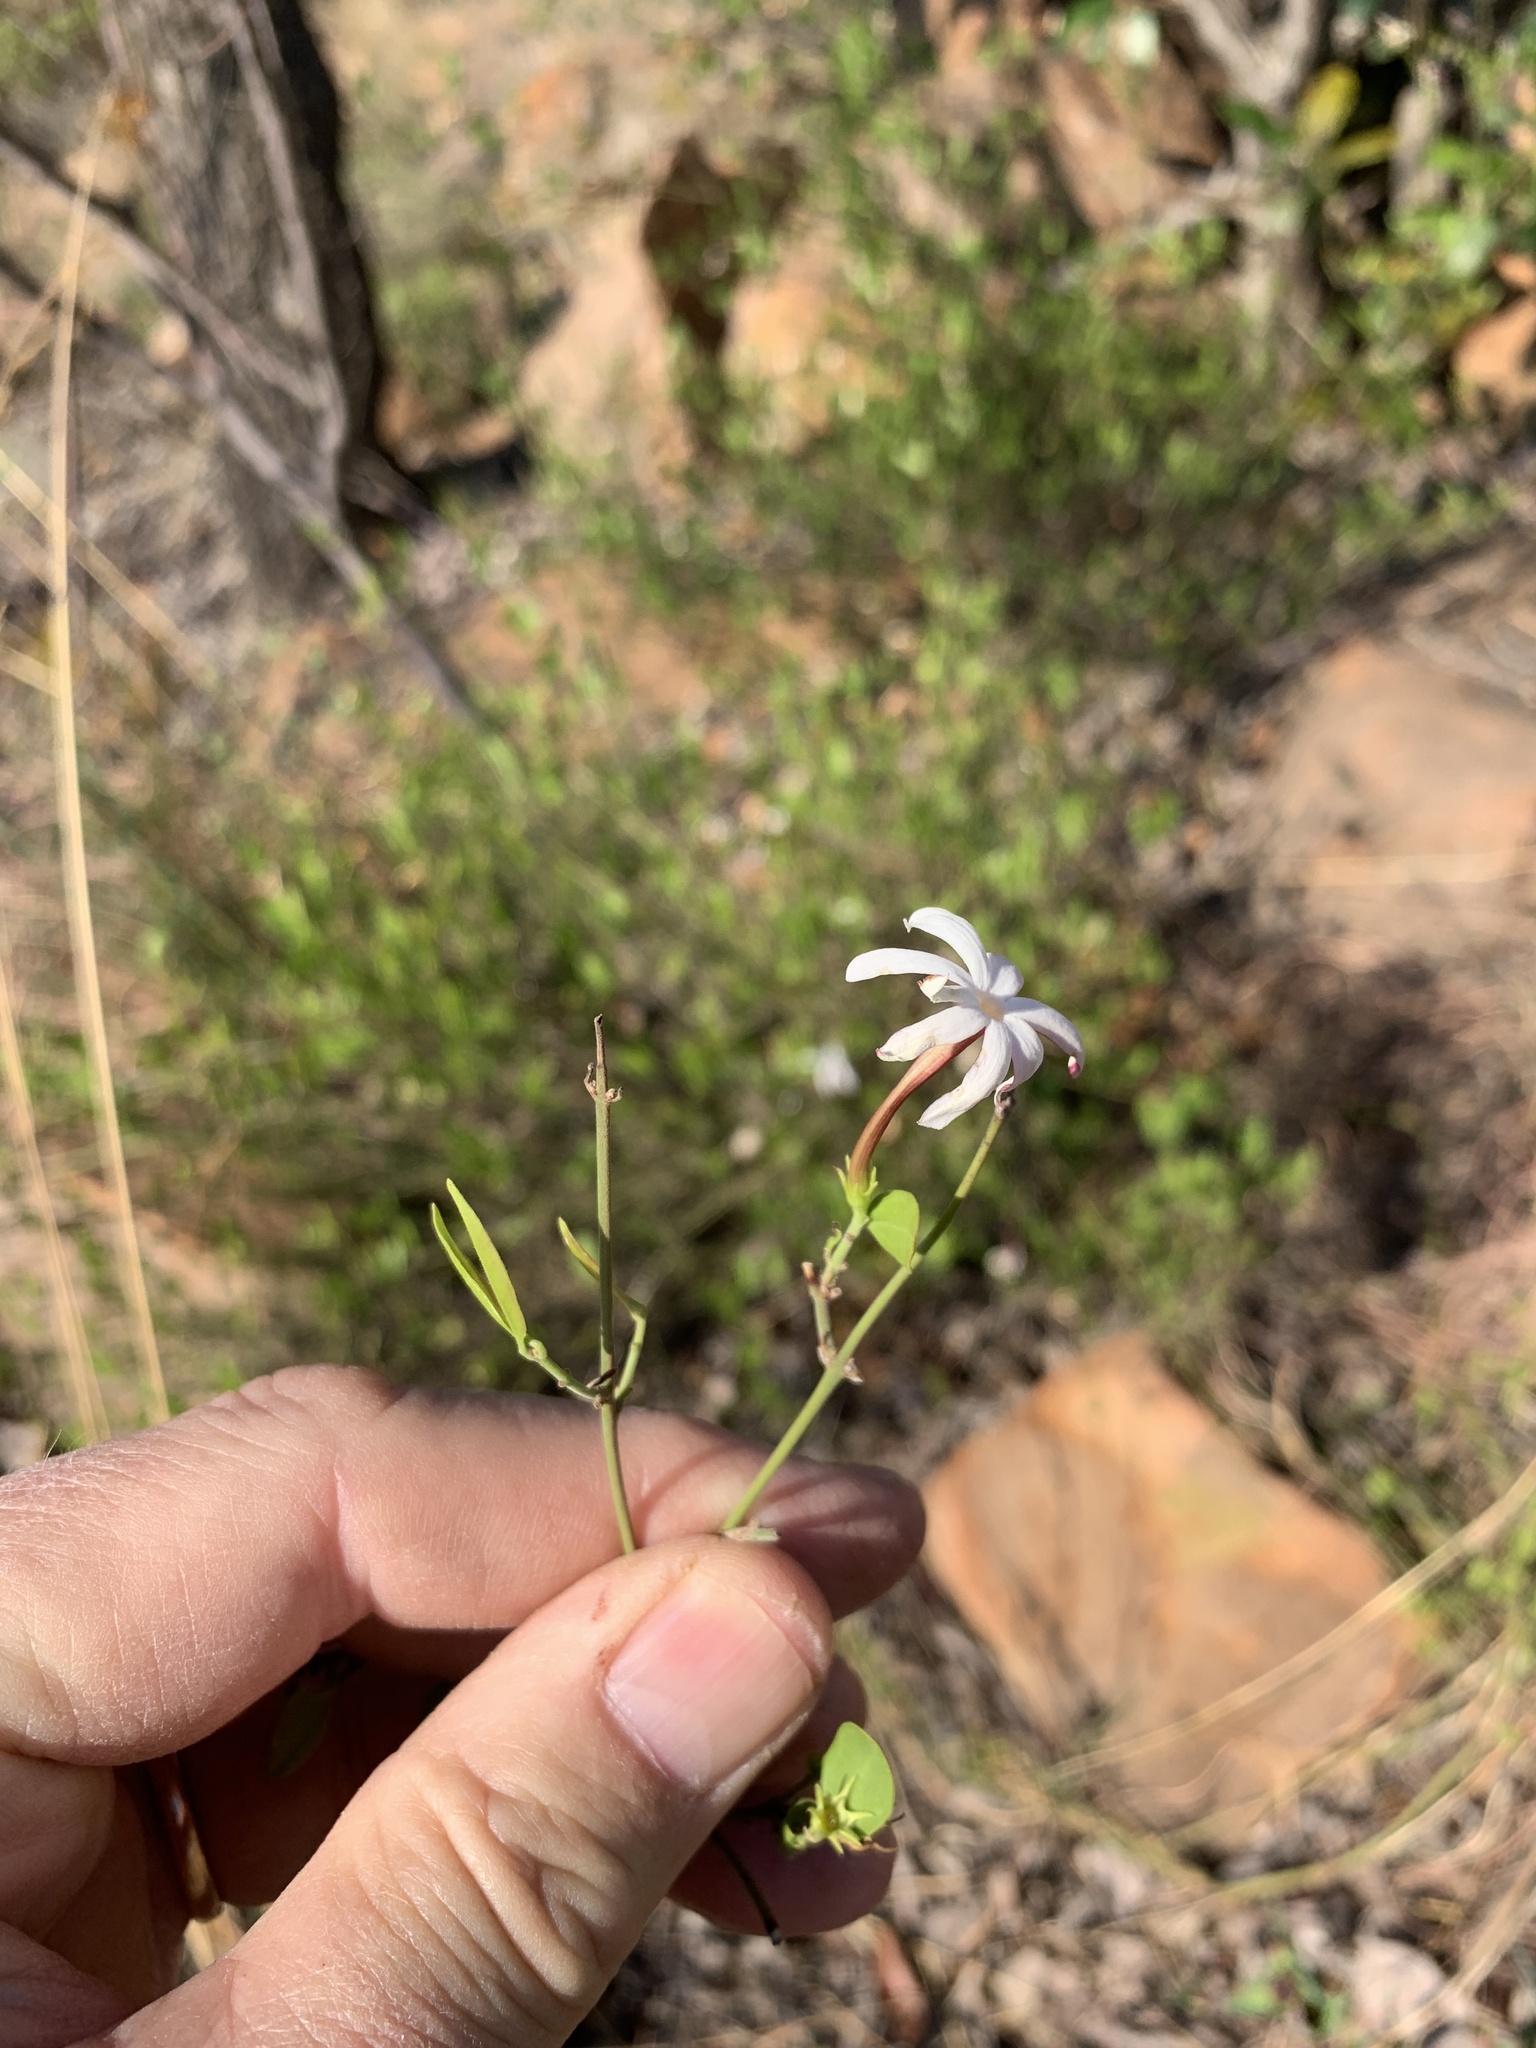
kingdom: Plantae
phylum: Tracheophyta
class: Magnoliopsida
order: Lamiales
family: Oleaceae
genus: Jasminum
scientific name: Jasminum multipartitum
